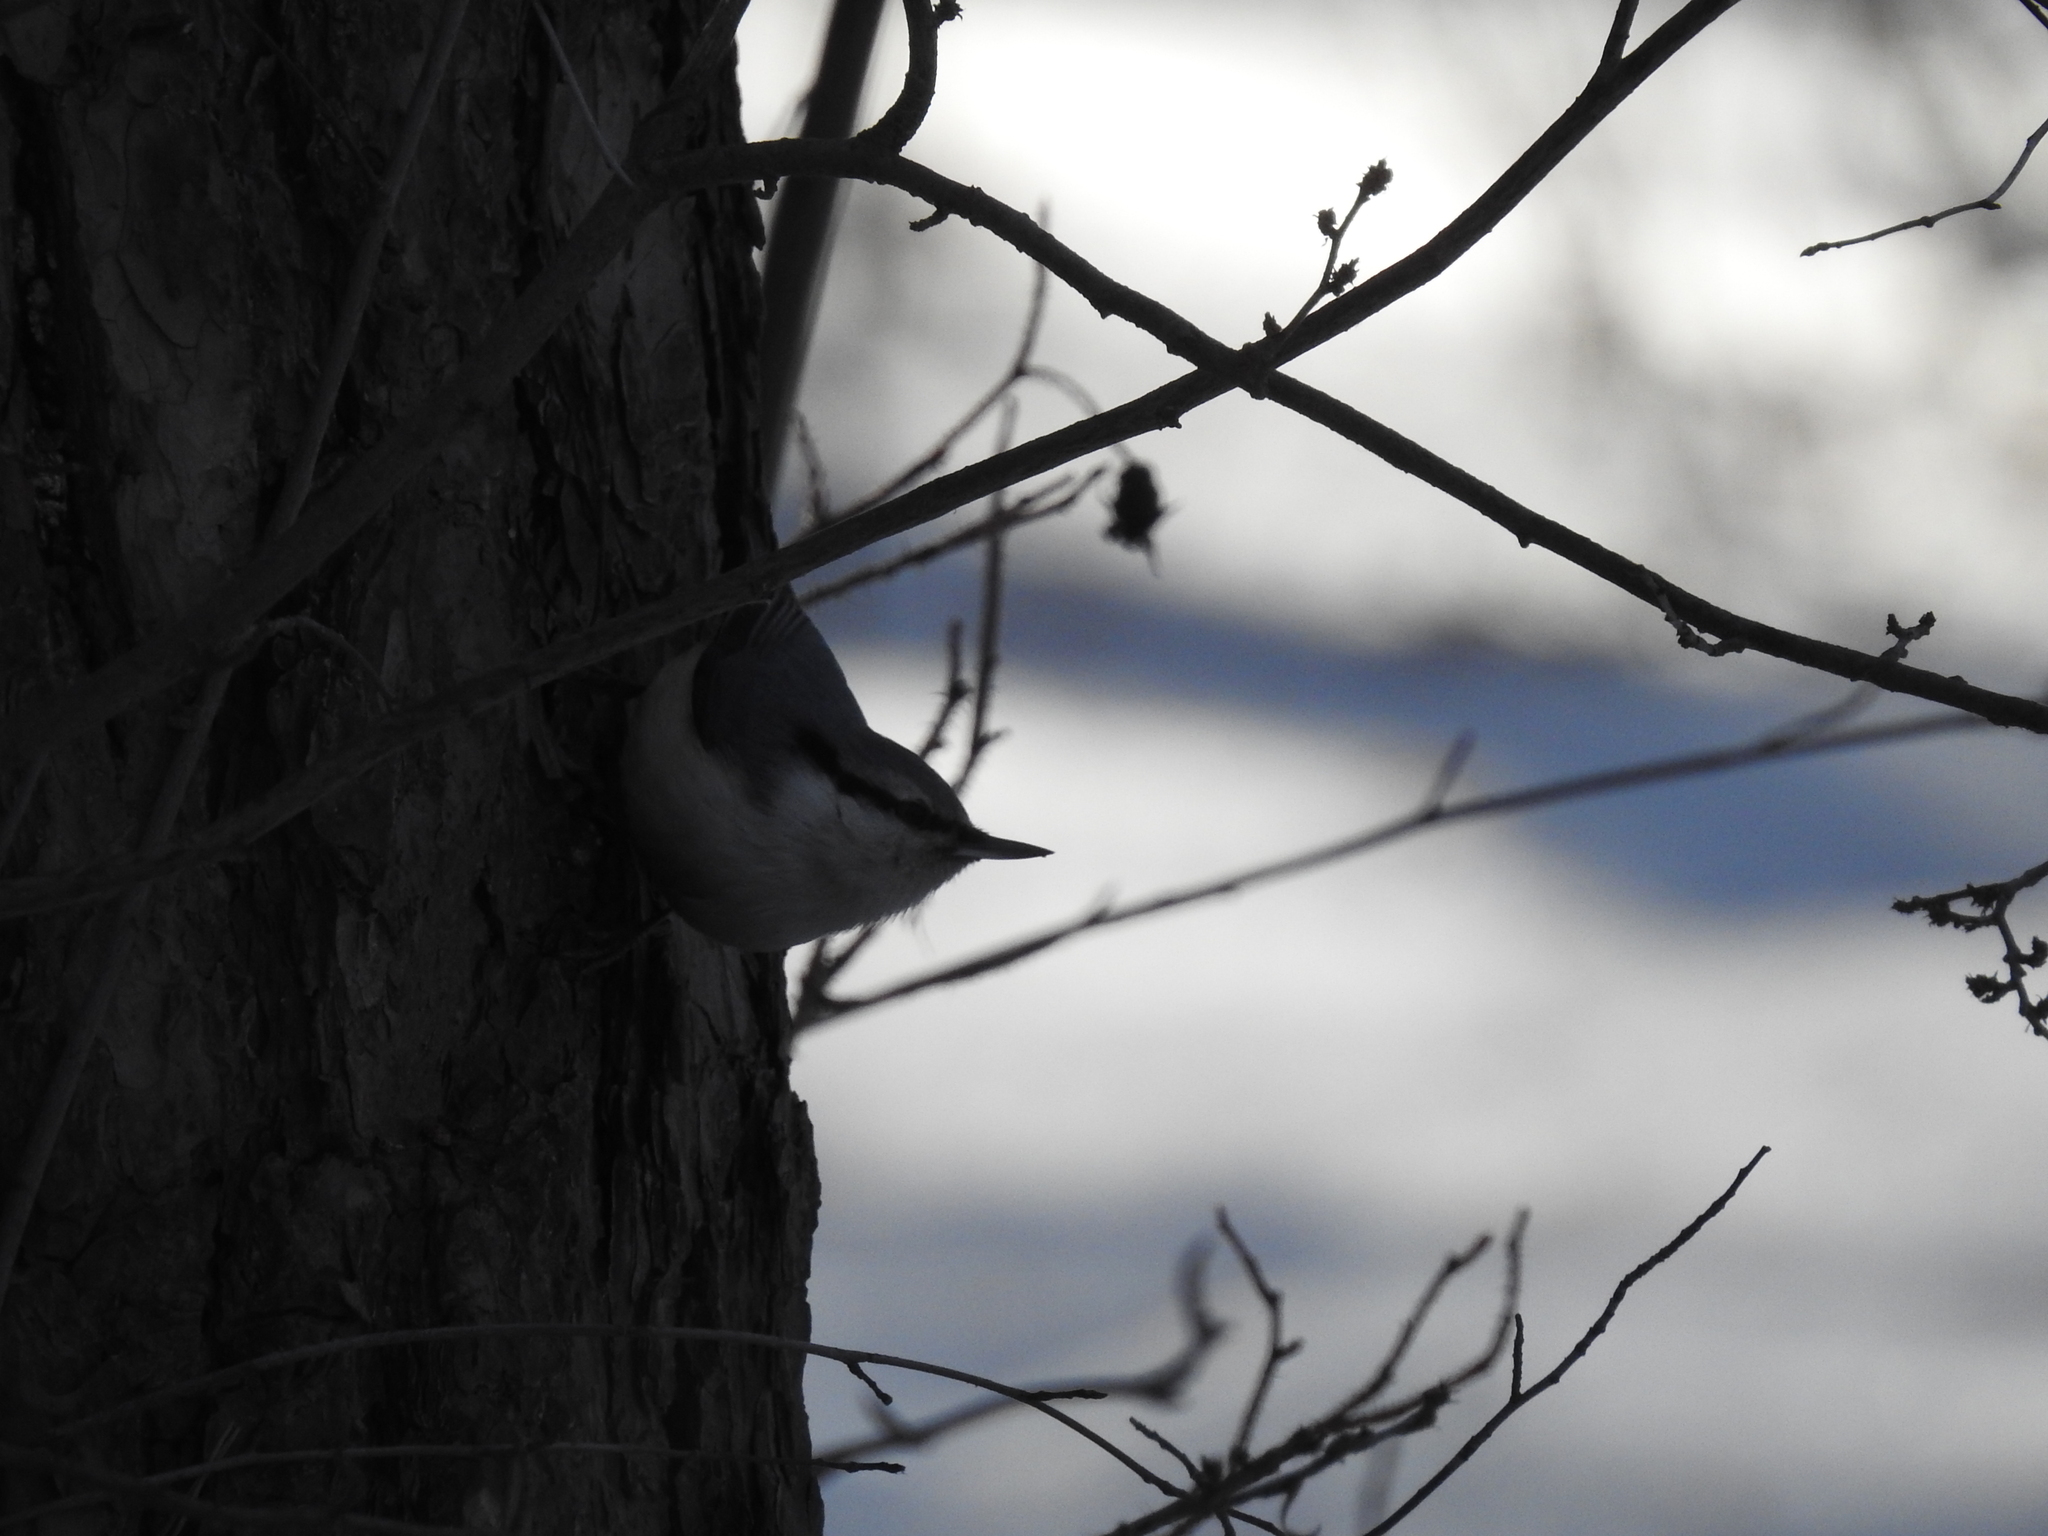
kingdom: Animalia
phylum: Chordata
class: Aves
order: Passeriformes
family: Sittidae
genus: Sitta
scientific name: Sitta europaea
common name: Eurasian nuthatch
